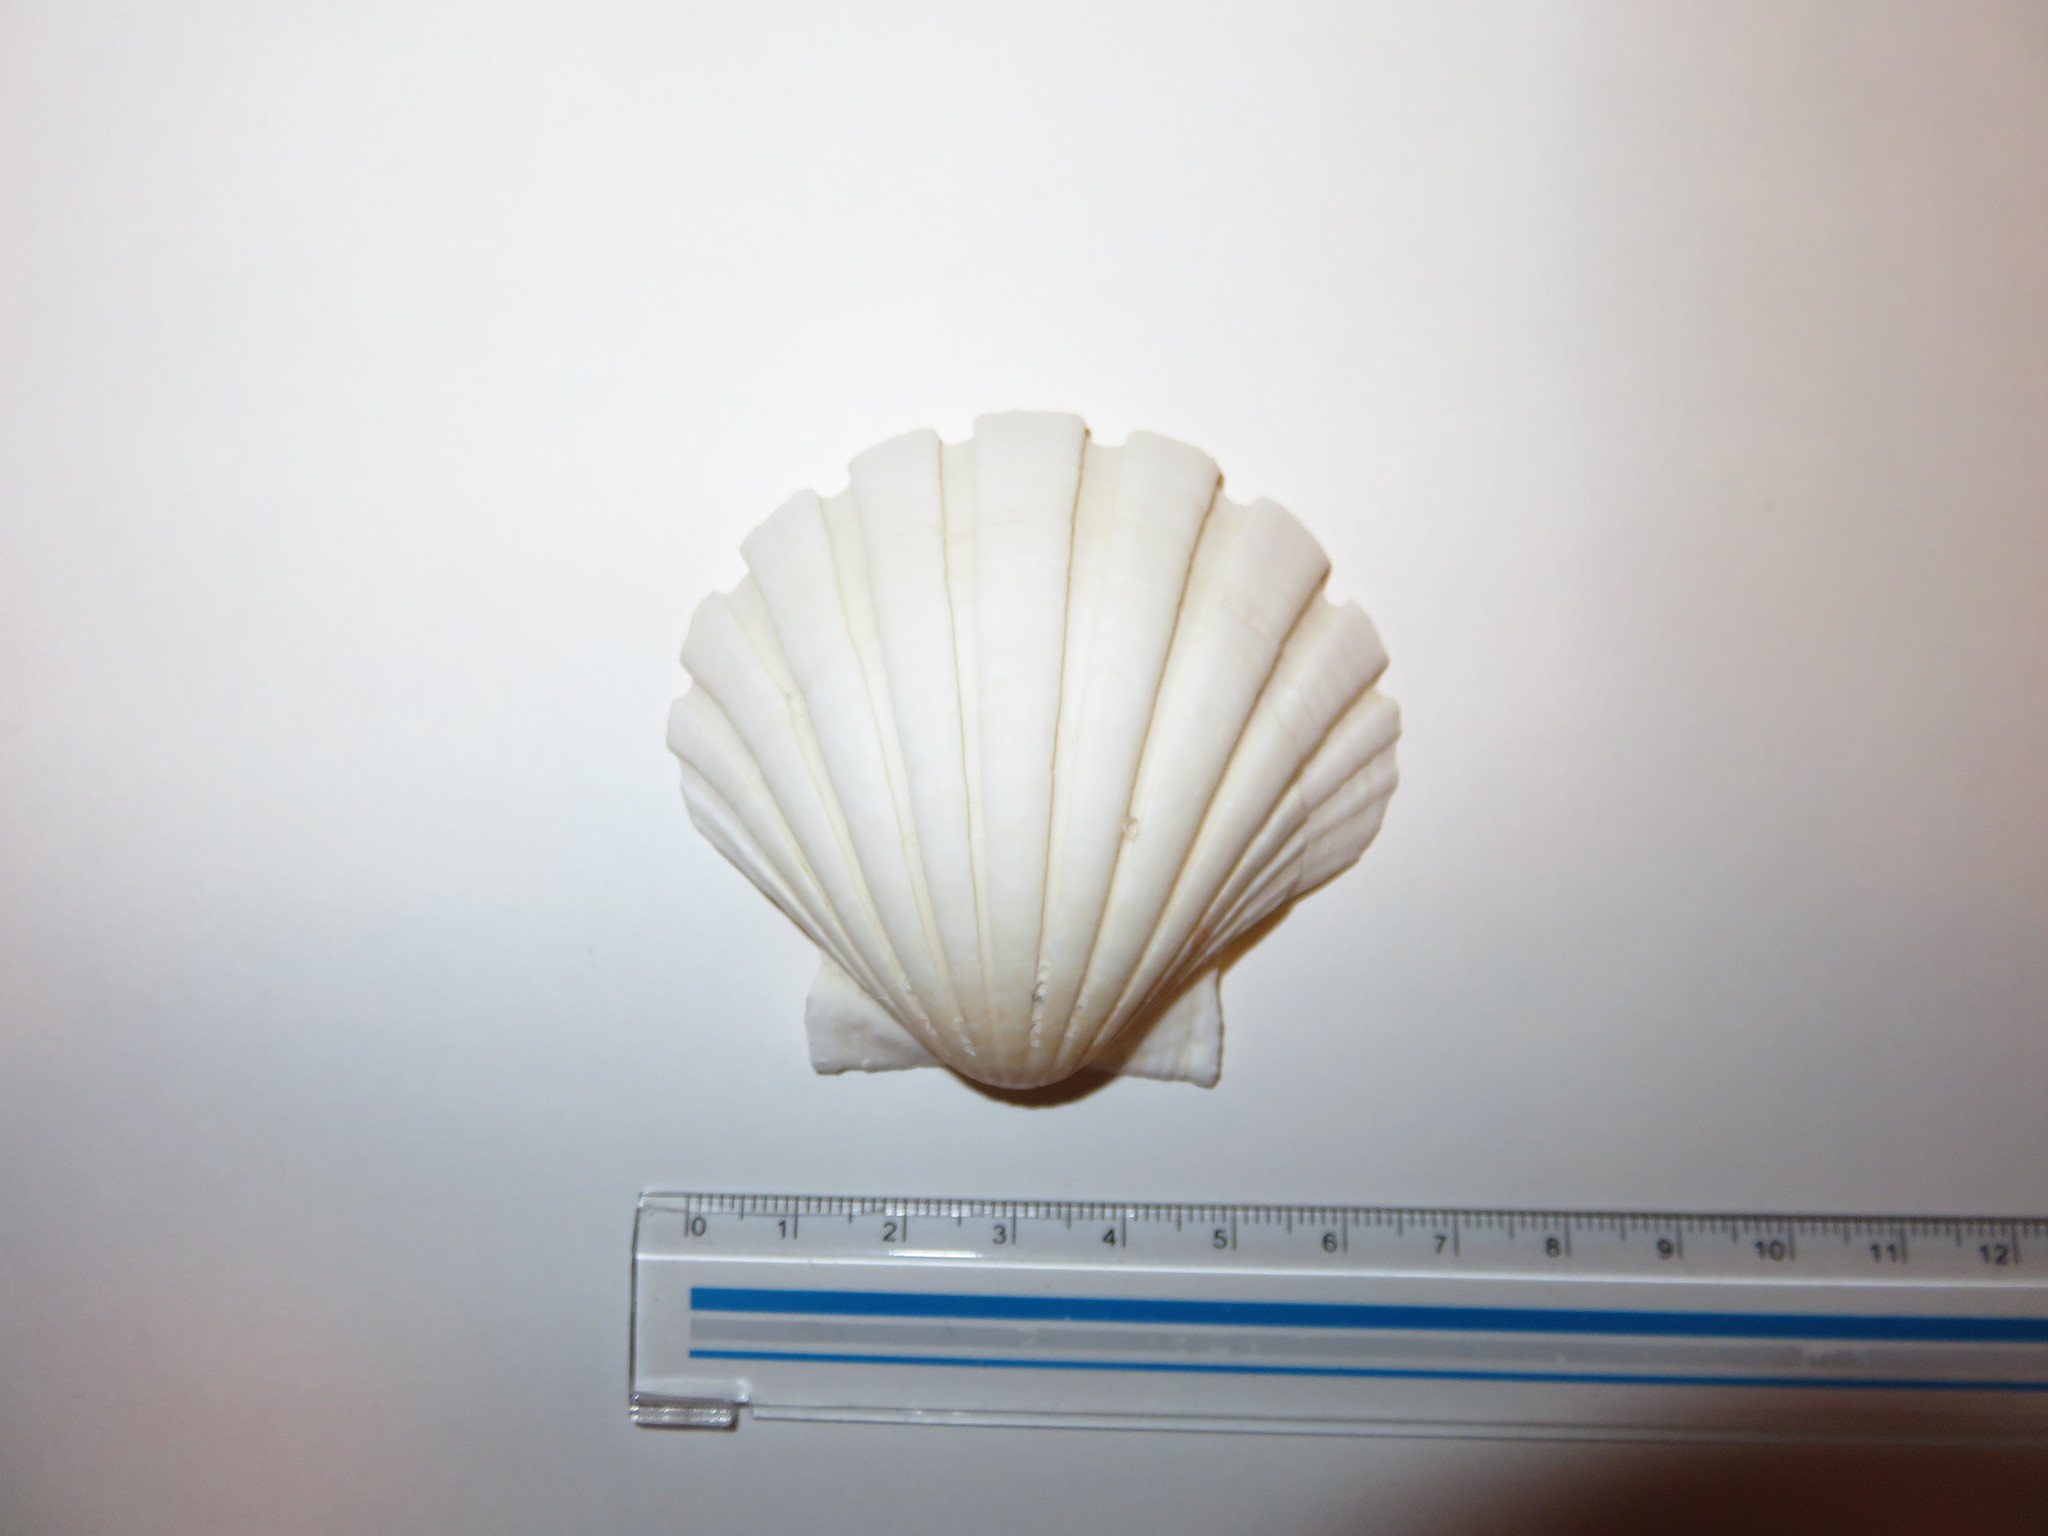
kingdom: Animalia
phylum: Mollusca
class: Bivalvia
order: Pectinida
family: Pectinidae
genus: Pecten
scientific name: Pecten albicans
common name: Japanese baking scallop
